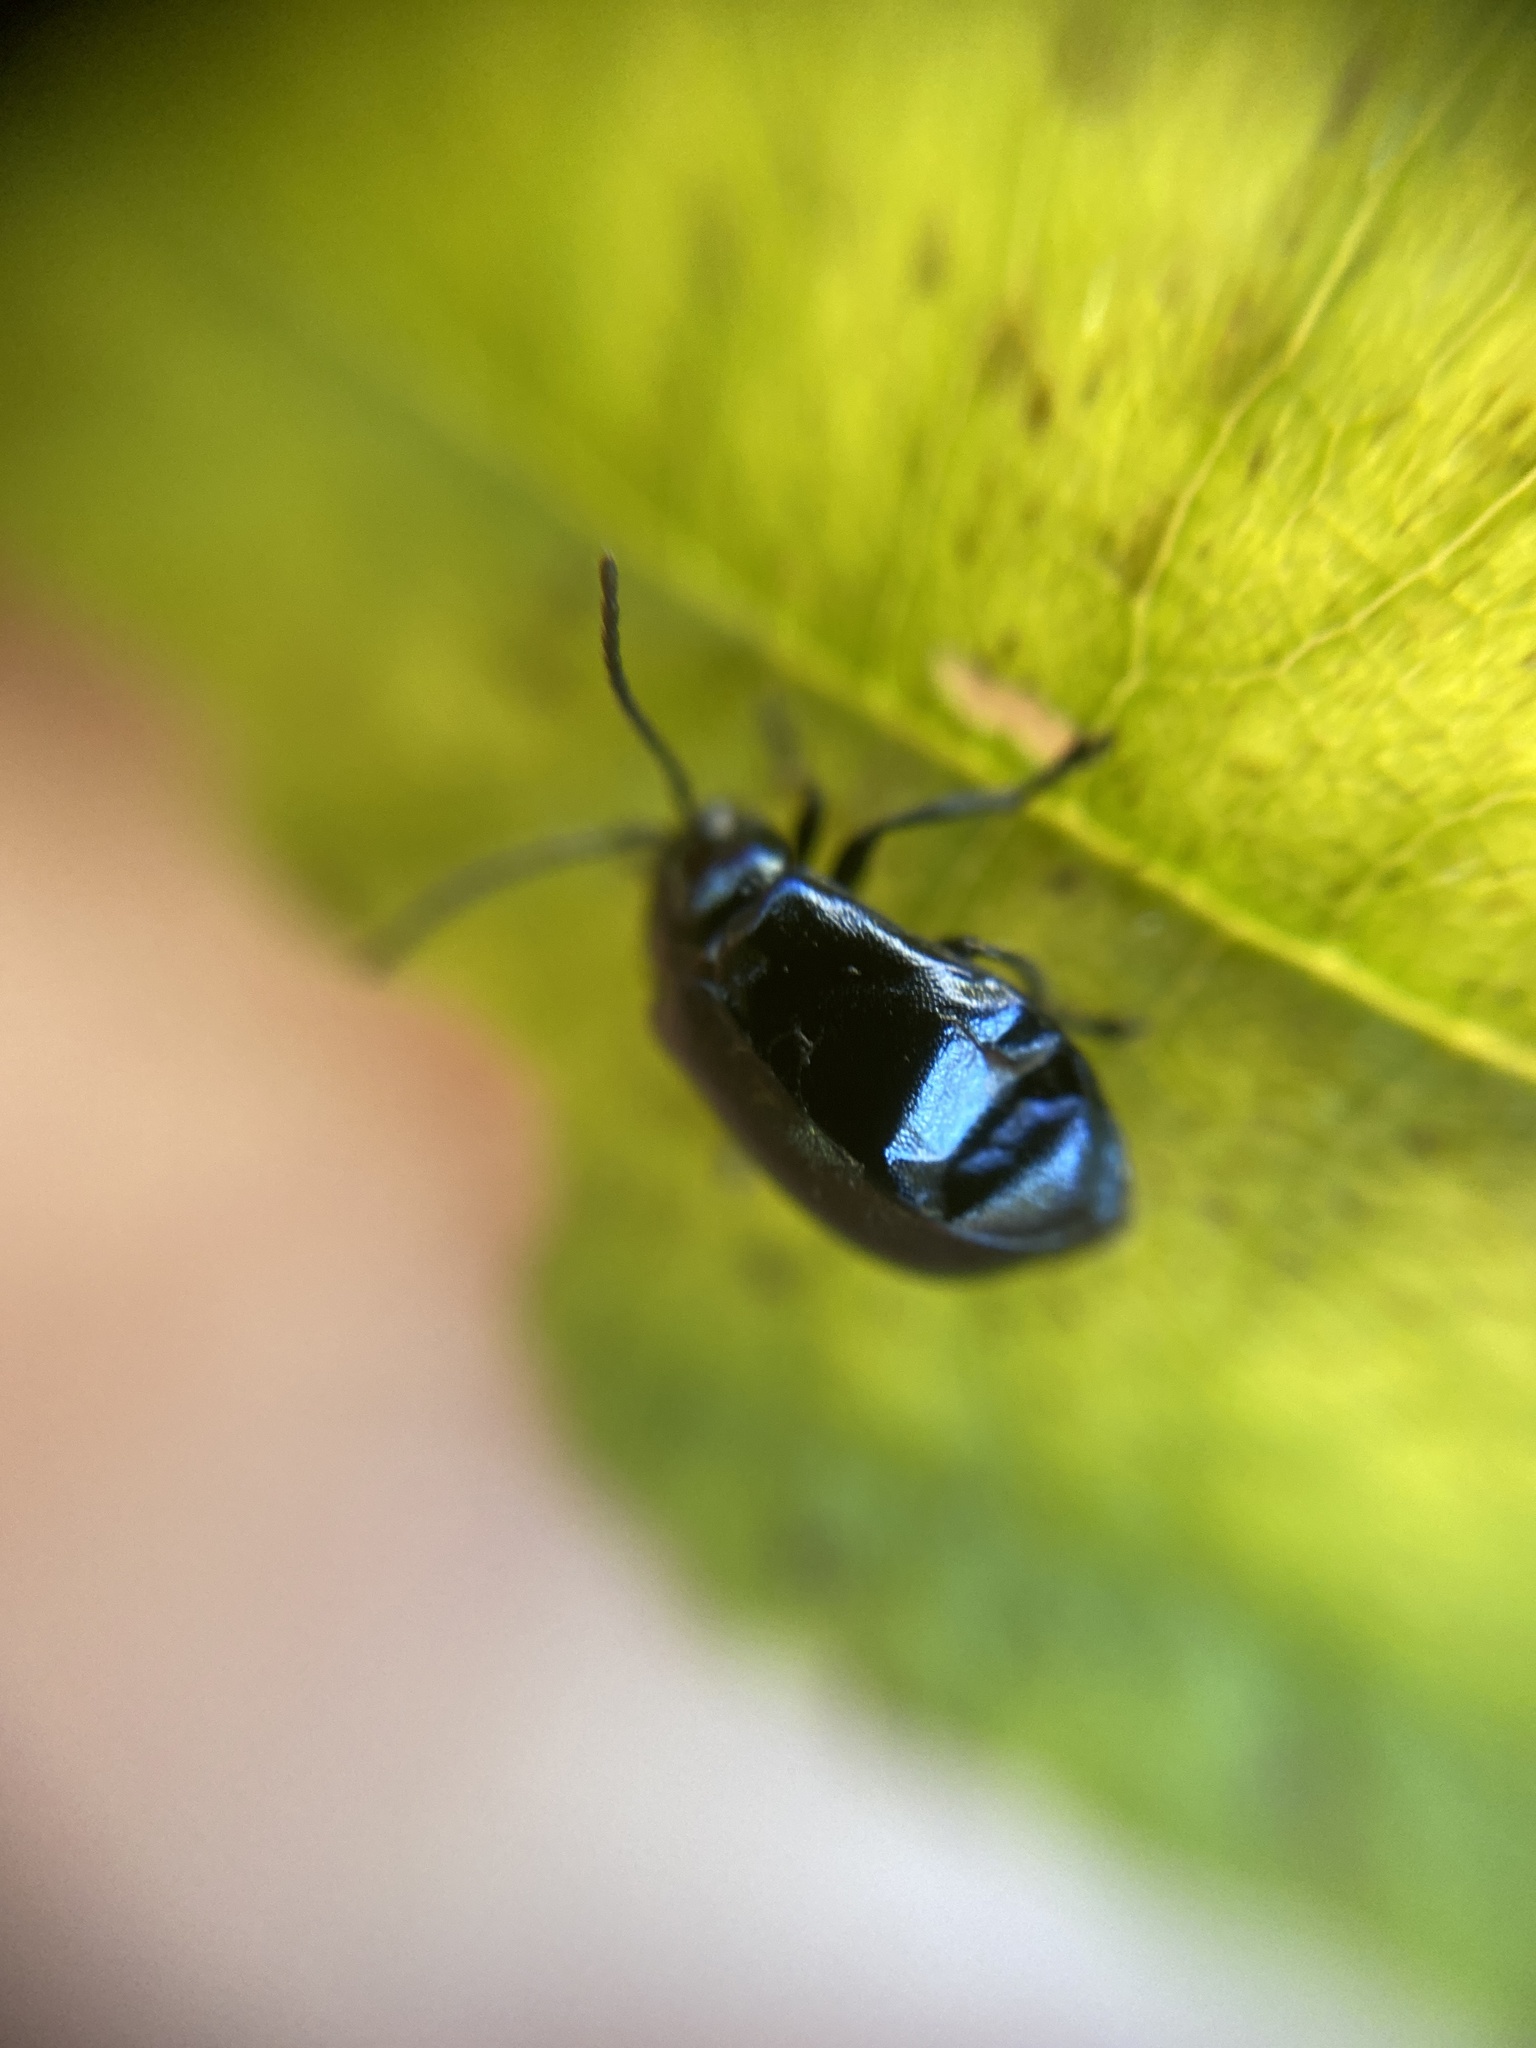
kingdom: Animalia
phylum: Arthropoda
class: Insecta
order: Coleoptera
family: Chrysomelidae
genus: Agelastica
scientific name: Agelastica alni
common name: Alder leaf beetle
